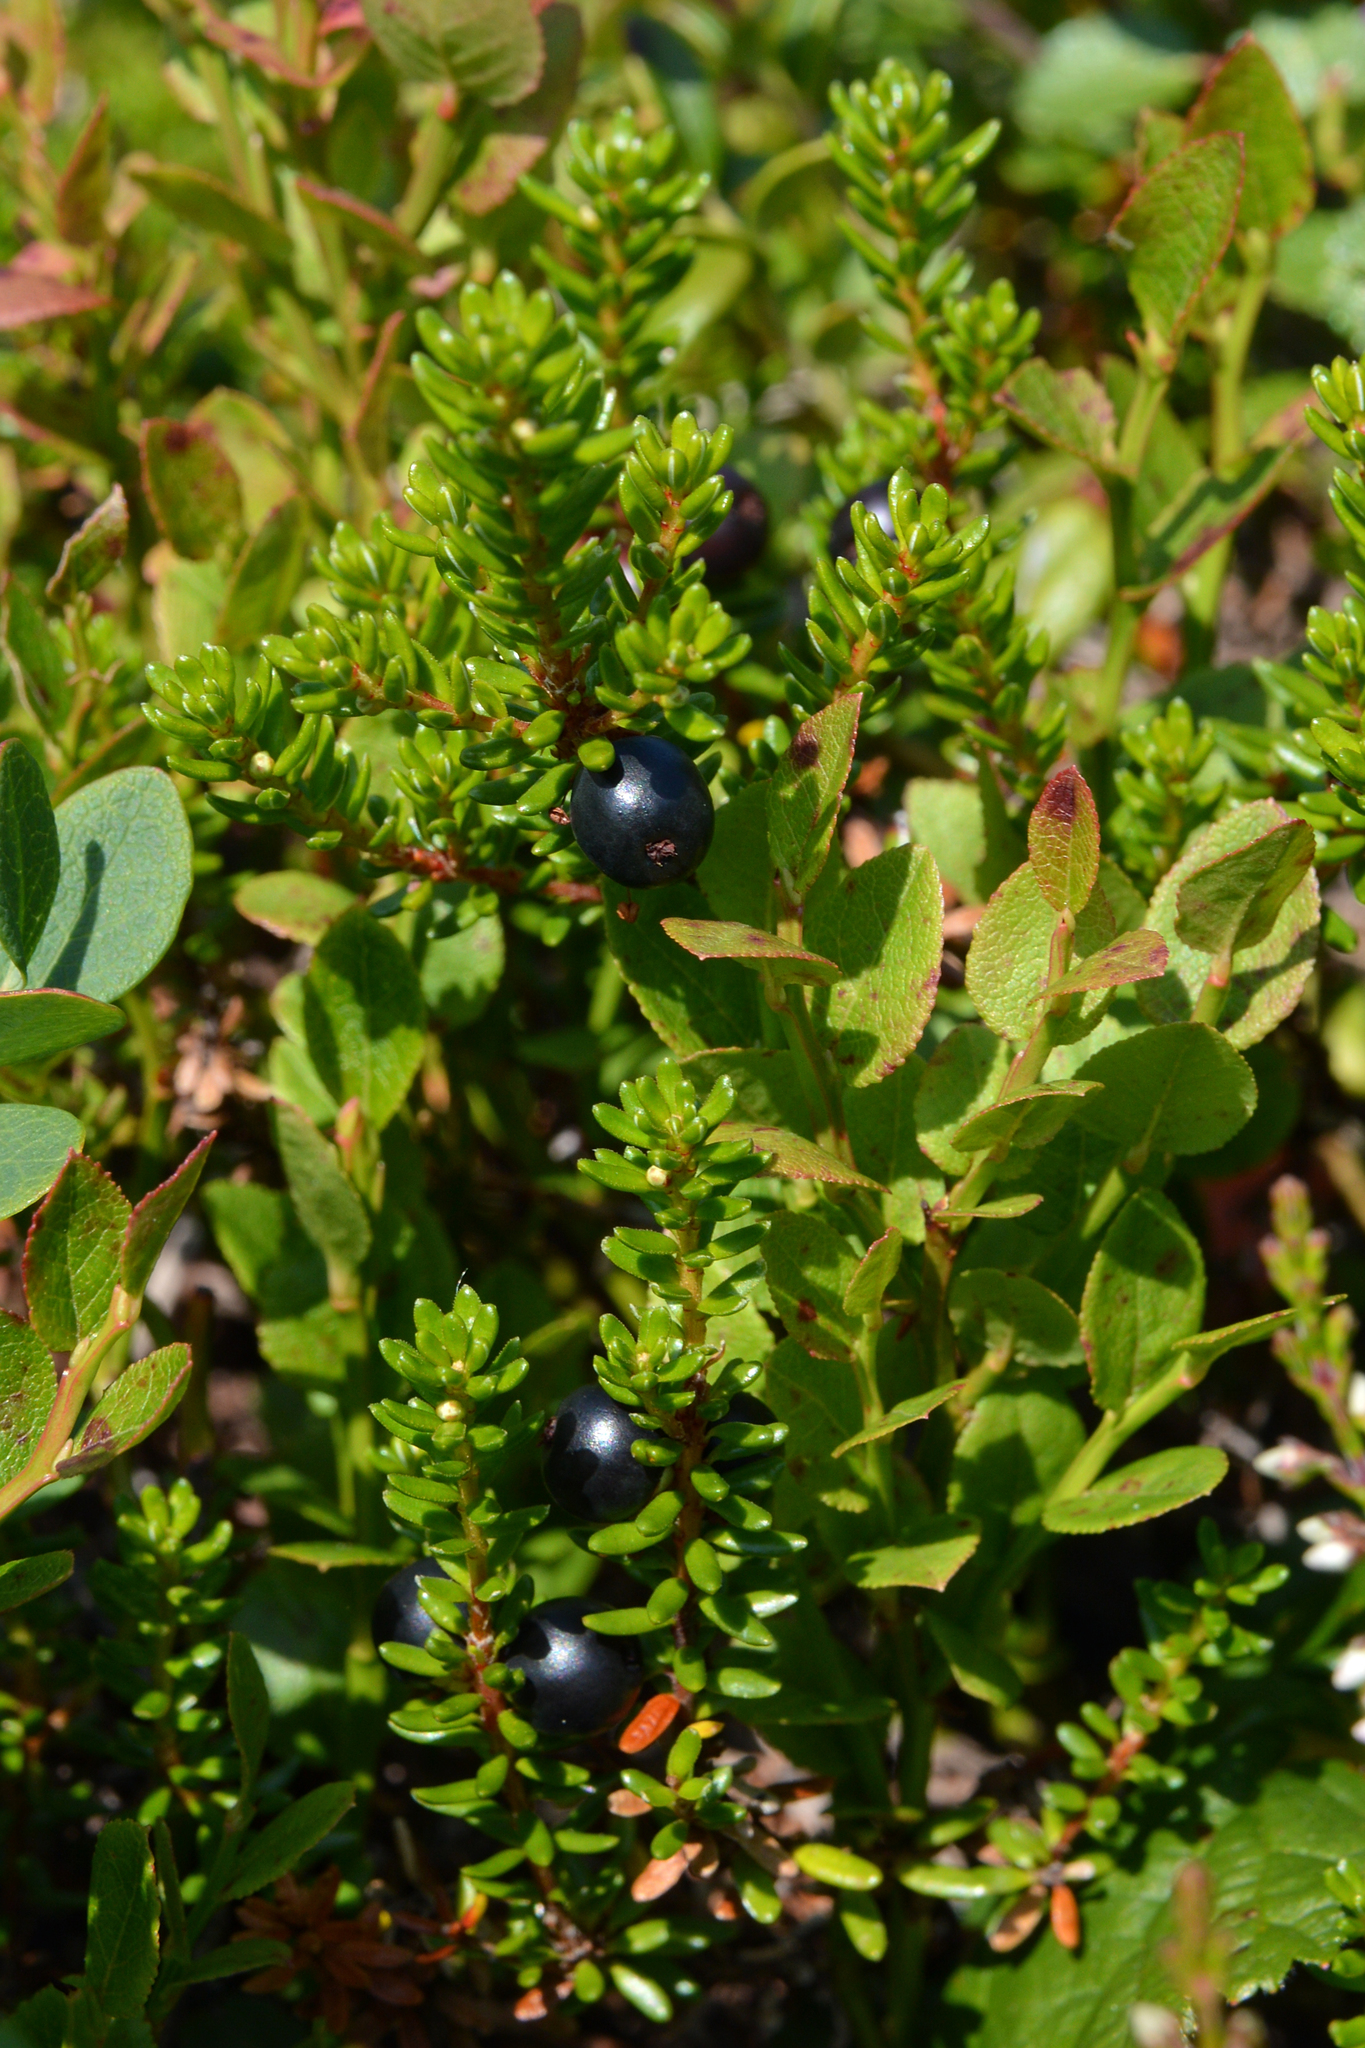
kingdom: Plantae
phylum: Tracheophyta
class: Magnoliopsida
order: Ericales
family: Ericaceae
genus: Empetrum
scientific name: Empetrum nigrum
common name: Black crowberry
